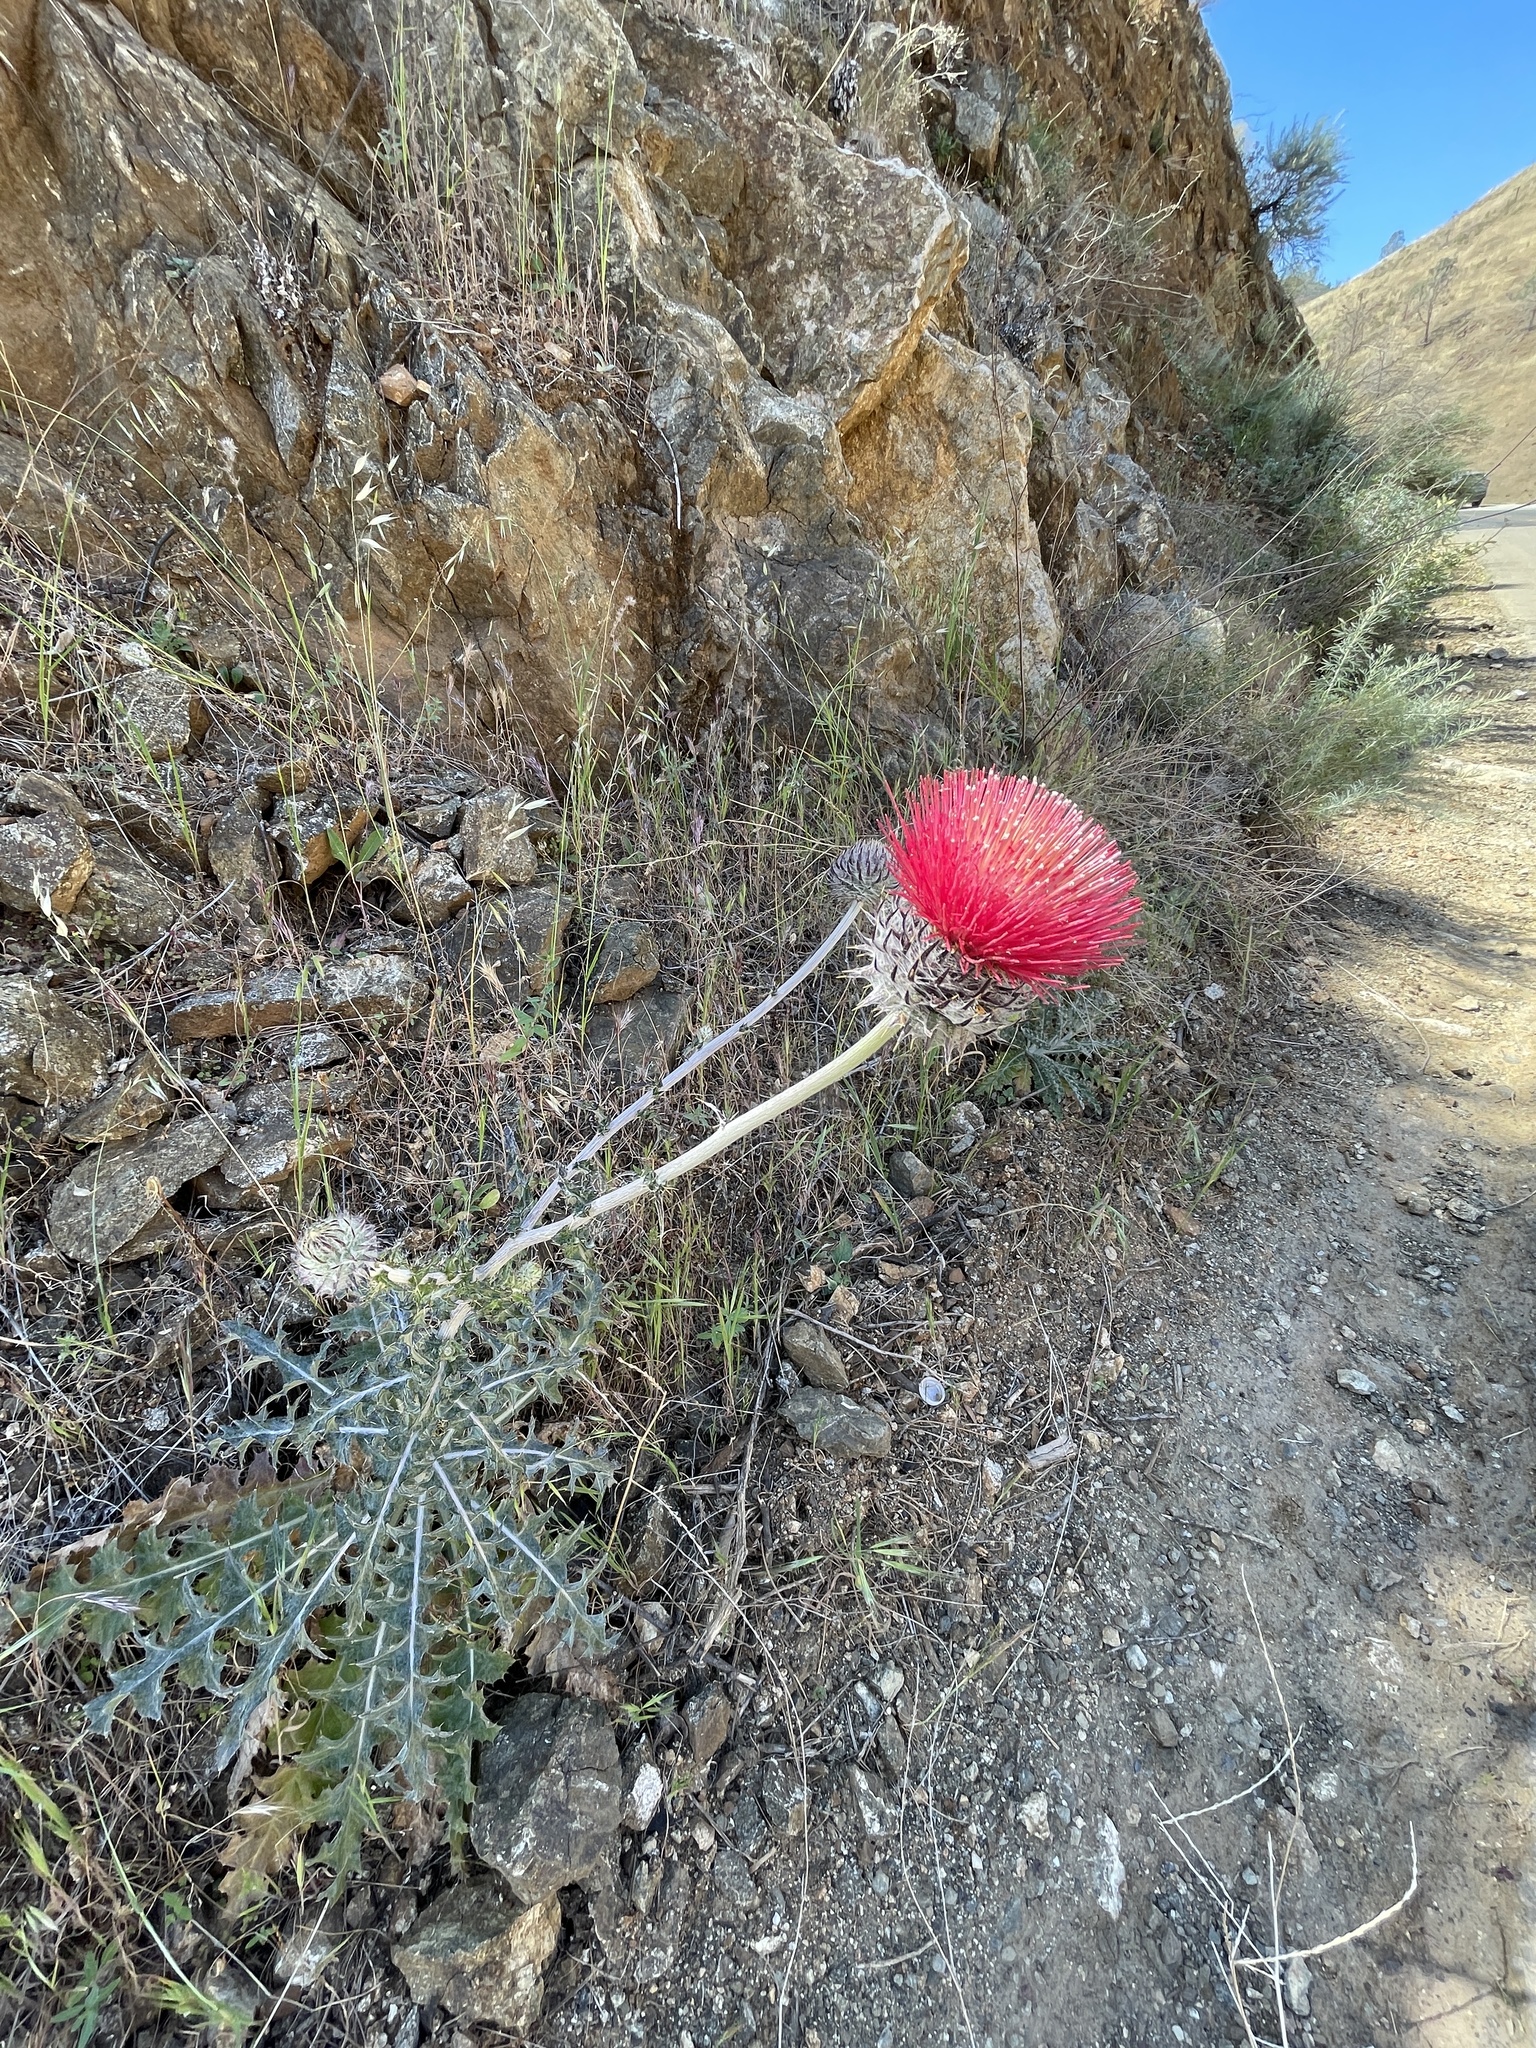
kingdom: Plantae
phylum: Tracheophyta
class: Magnoliopsida
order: Asterales
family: Asteraceae
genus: Cirsium
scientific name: Cirsium occidentale
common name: Western thistle
